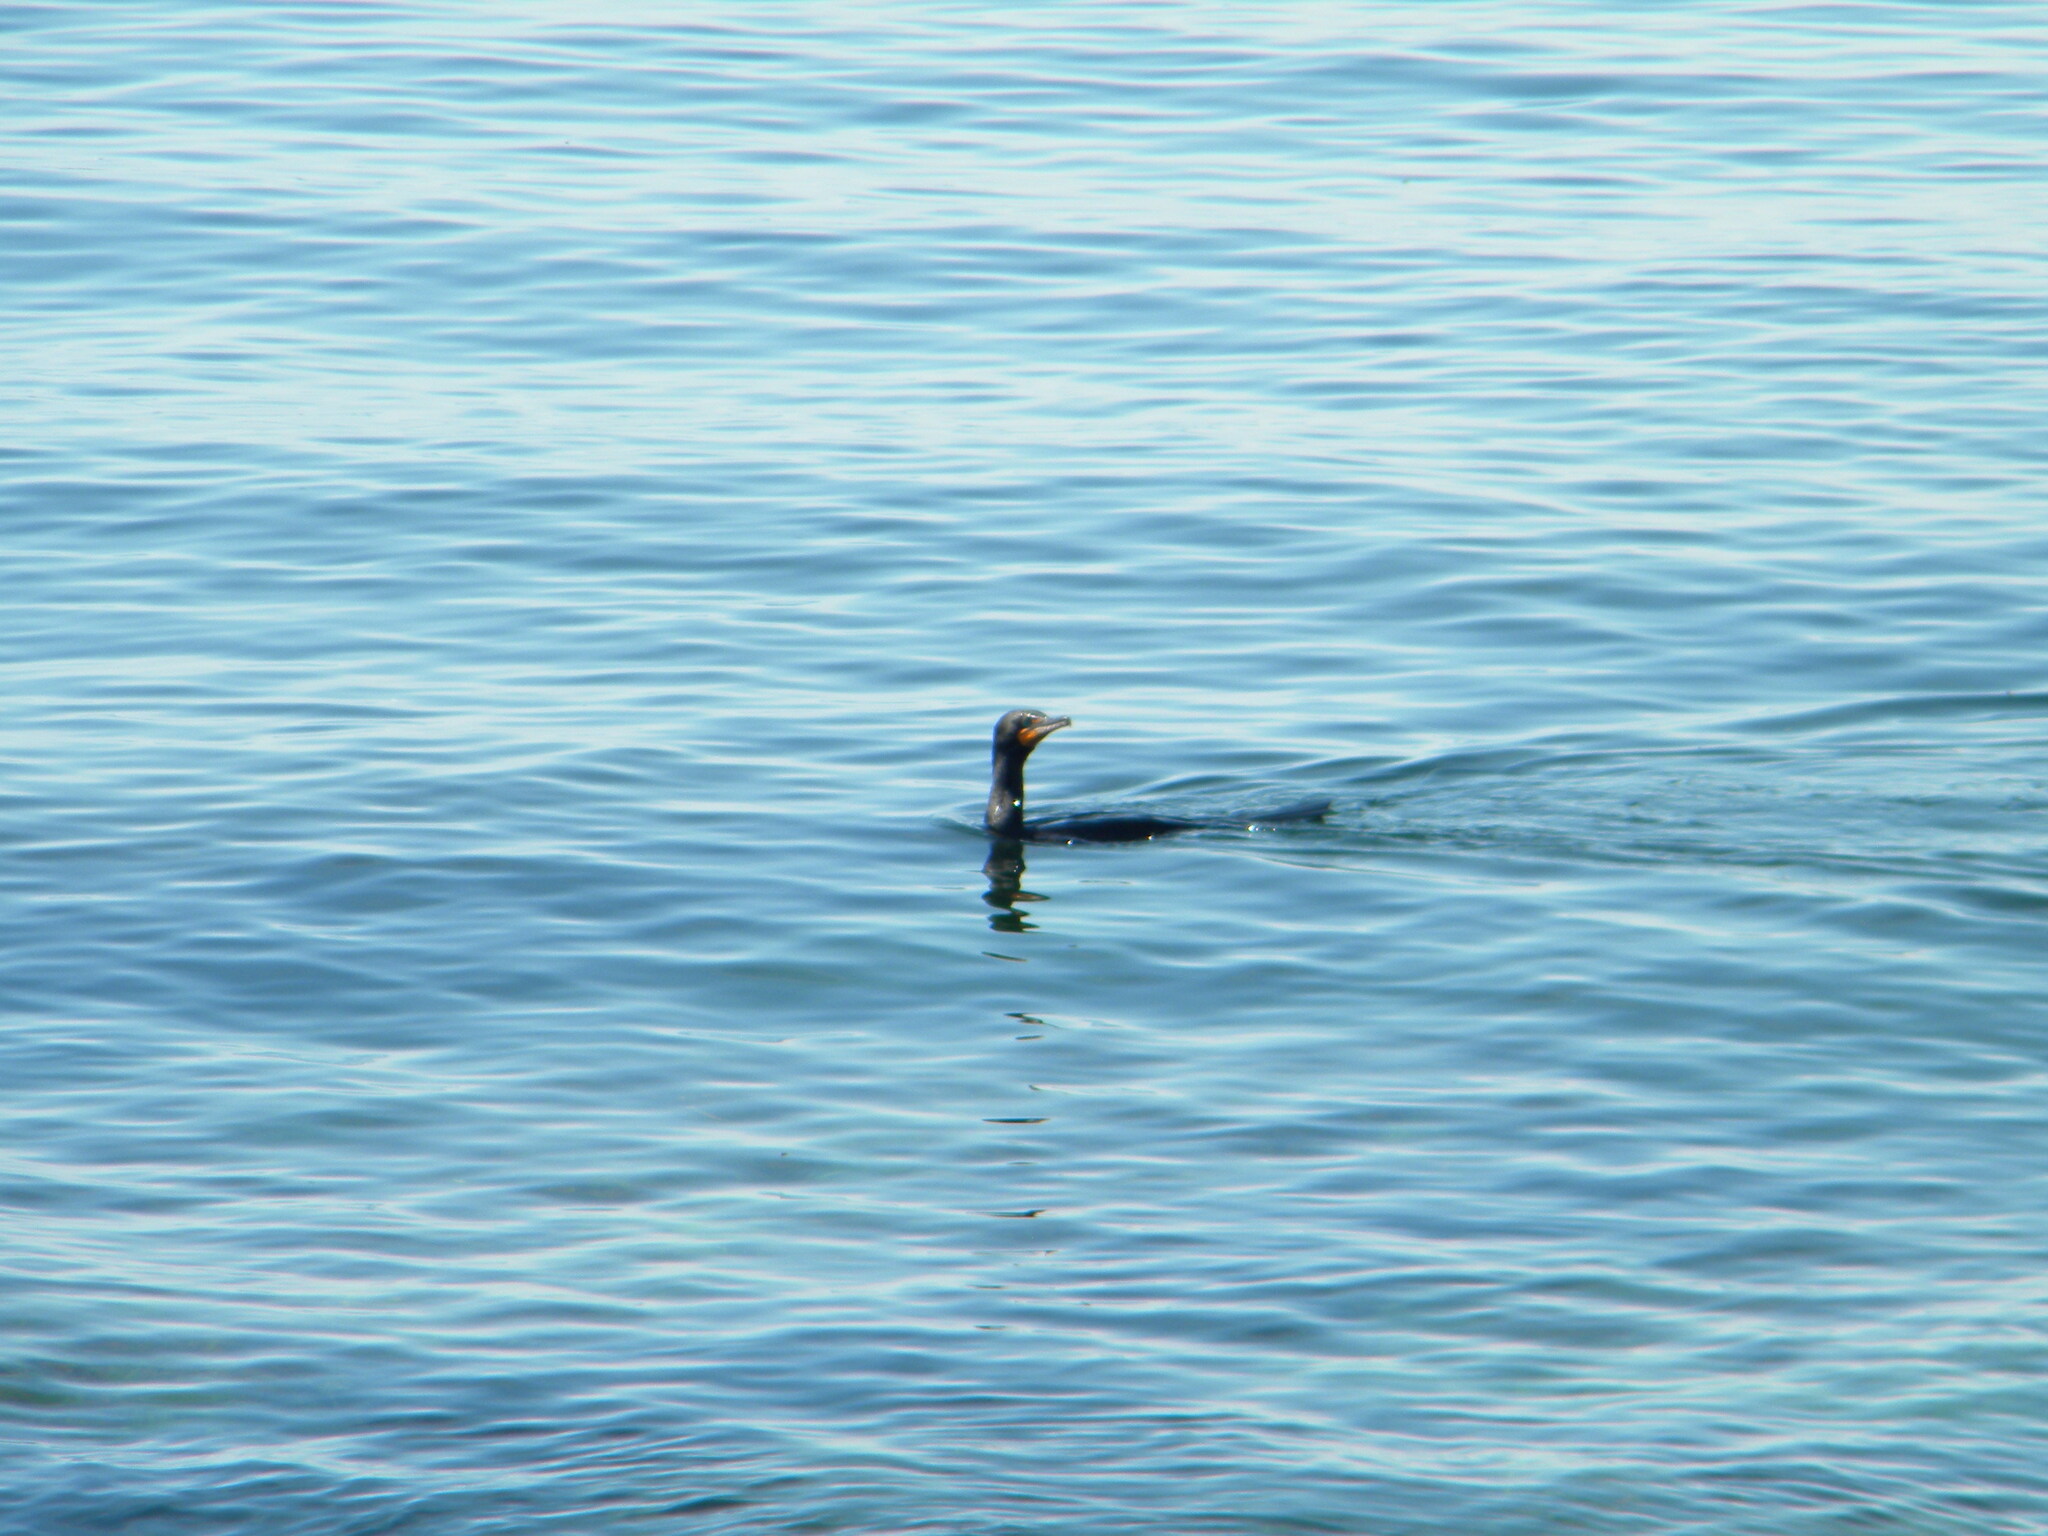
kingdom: Animalia
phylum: Chordata
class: Aves
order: Suliformes
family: Phalacrocoracidae
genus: Phalacrocorax
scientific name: Phalacrocorax auritus
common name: Double-crested cormorant
